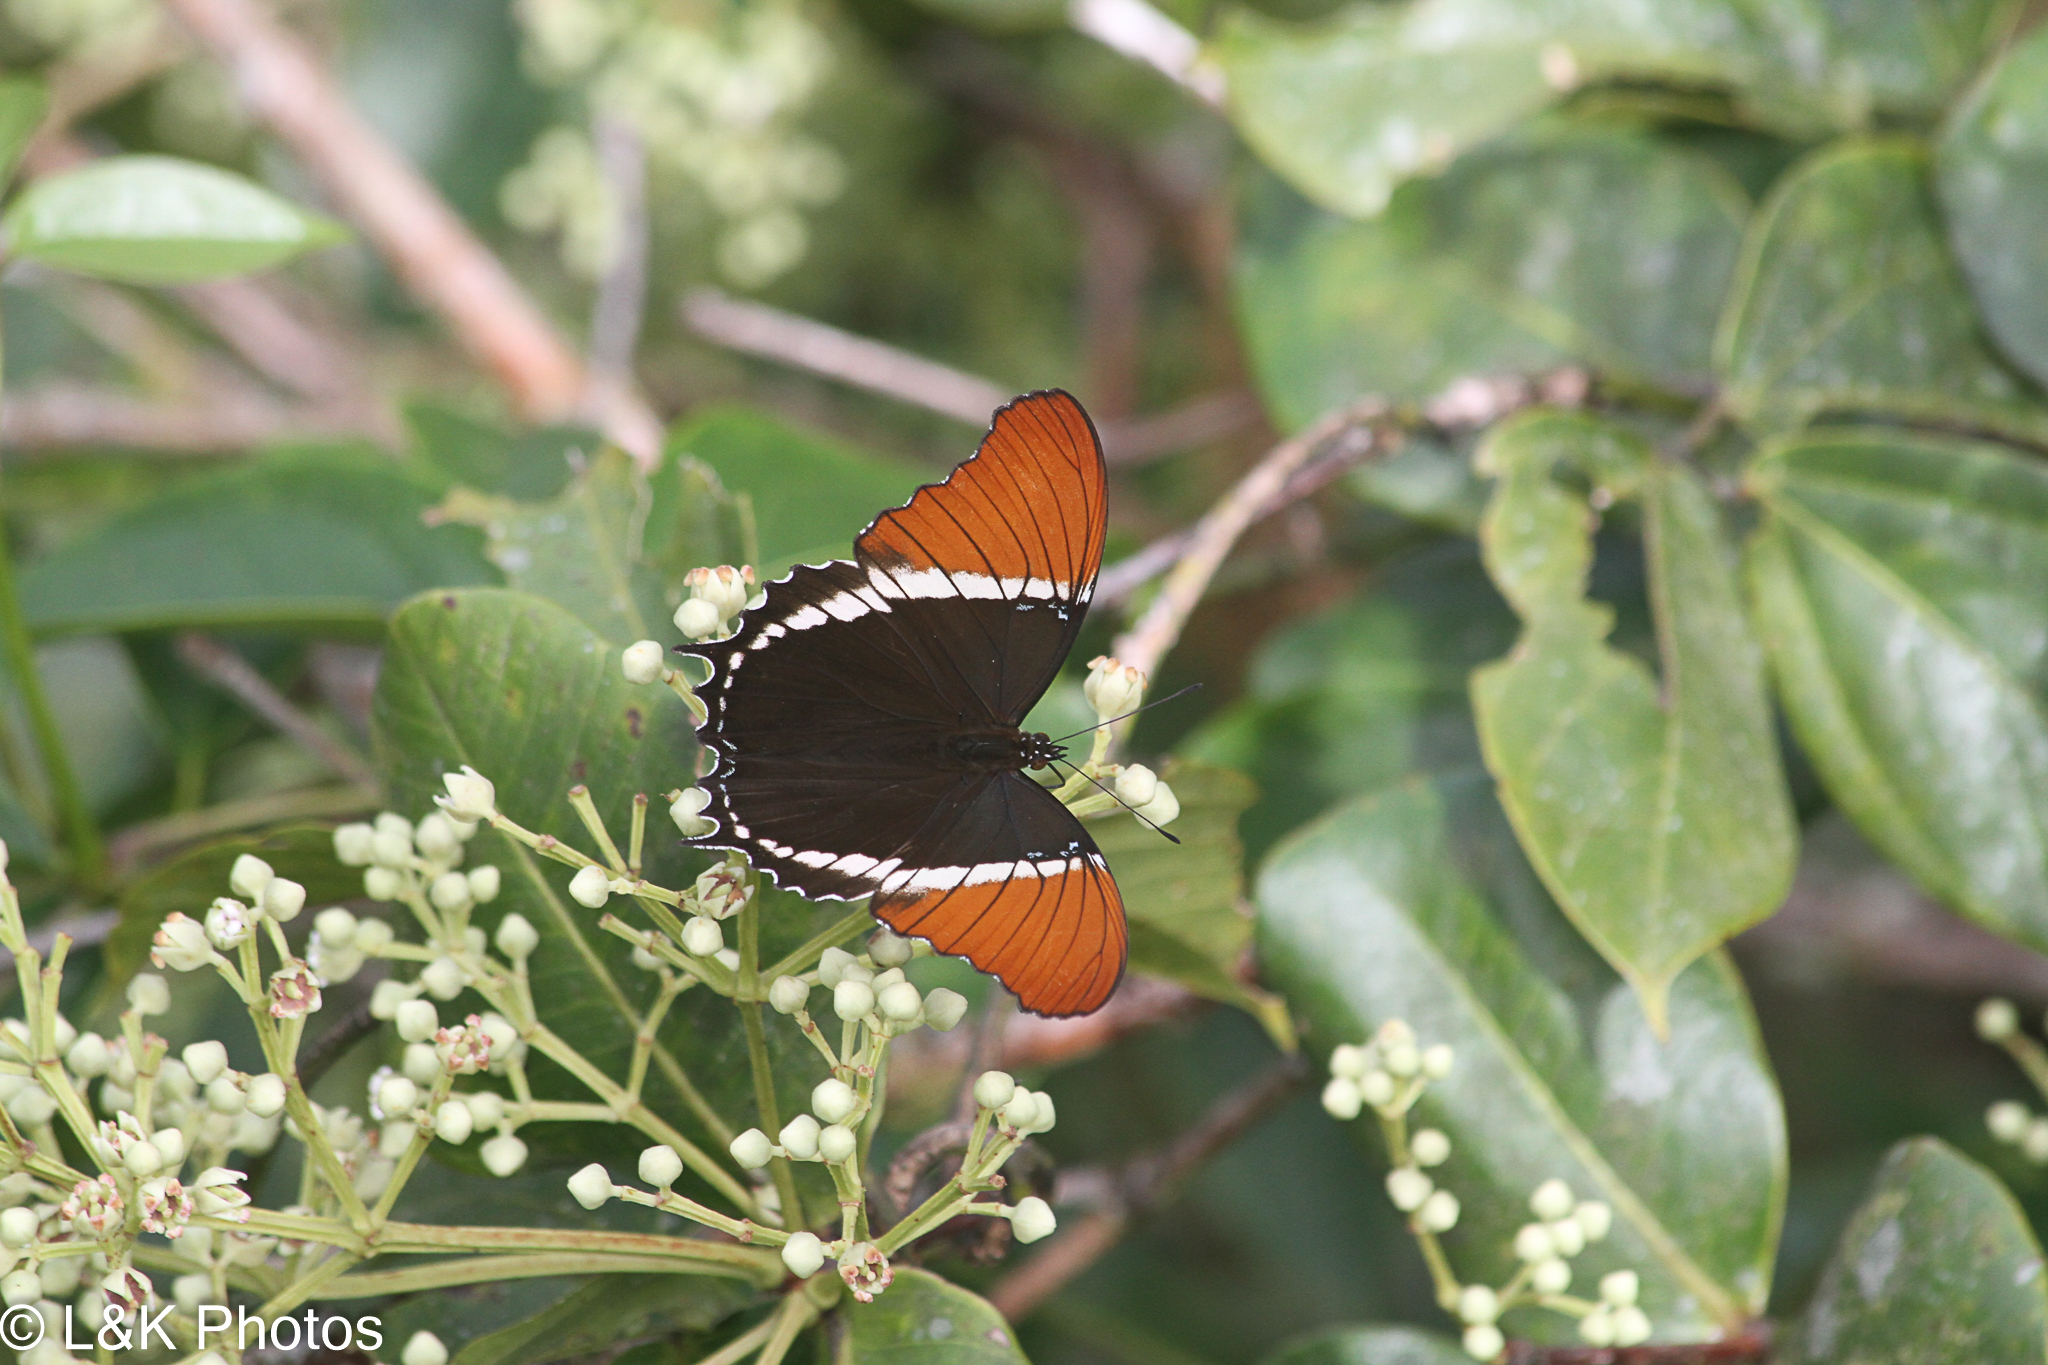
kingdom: Animalia
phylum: Arthropoda
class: Insecta
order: Lepidoptera
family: Nymphalidae
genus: Siproeta
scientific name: Siproeta epaphus
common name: Rusty-tipped page
